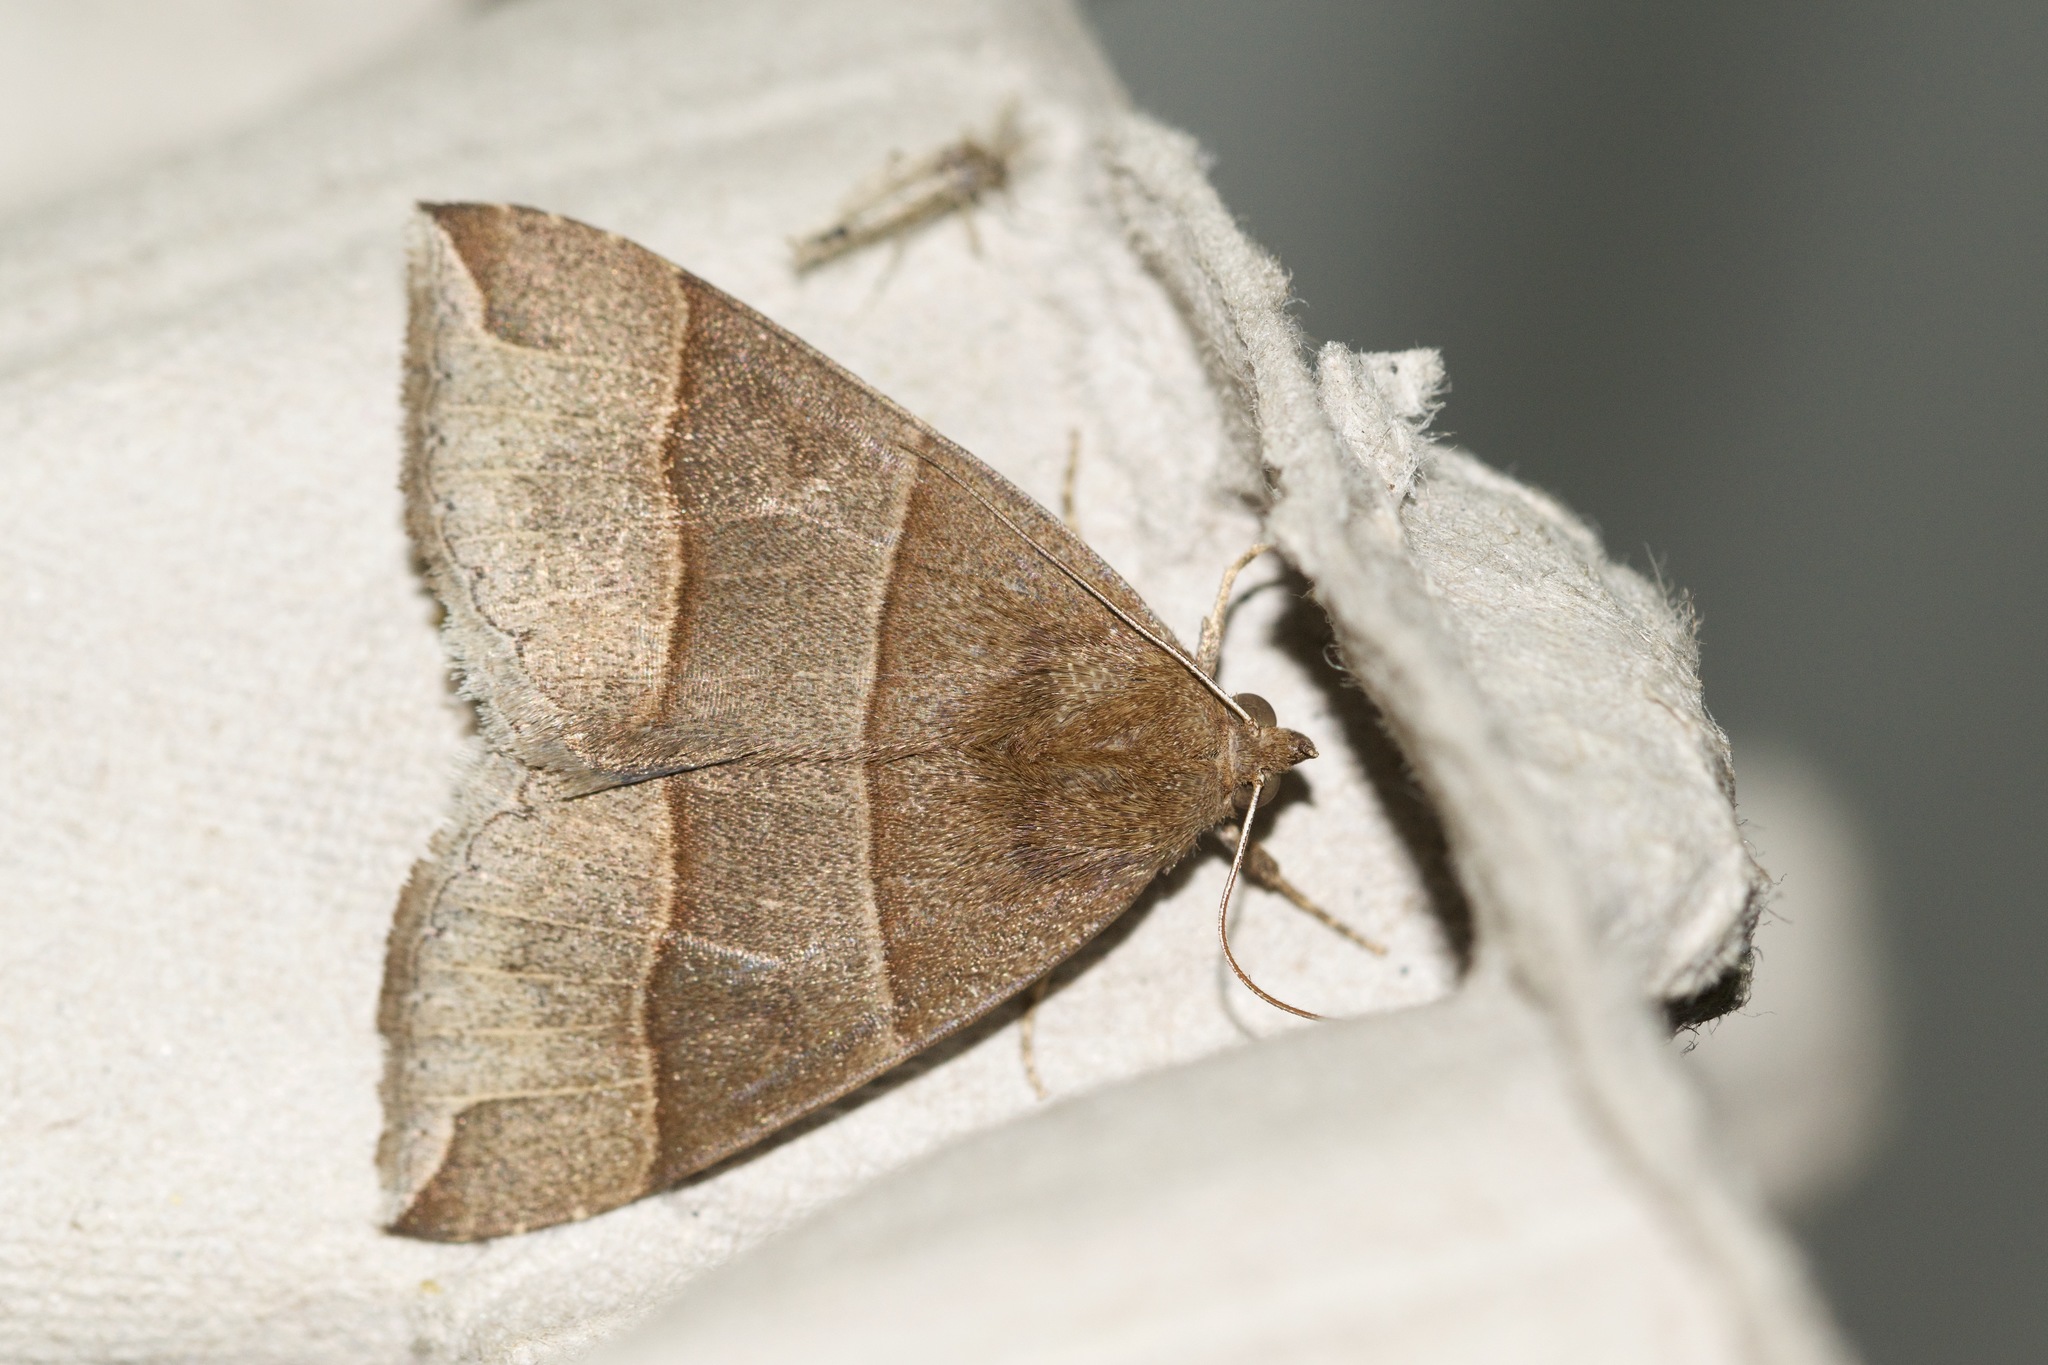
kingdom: Animalia
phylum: Arthropoda
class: Insecta
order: Lepidoptera
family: Erebidae
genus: Parallelia
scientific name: Parallelia bistriaris
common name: Maple looper moth
